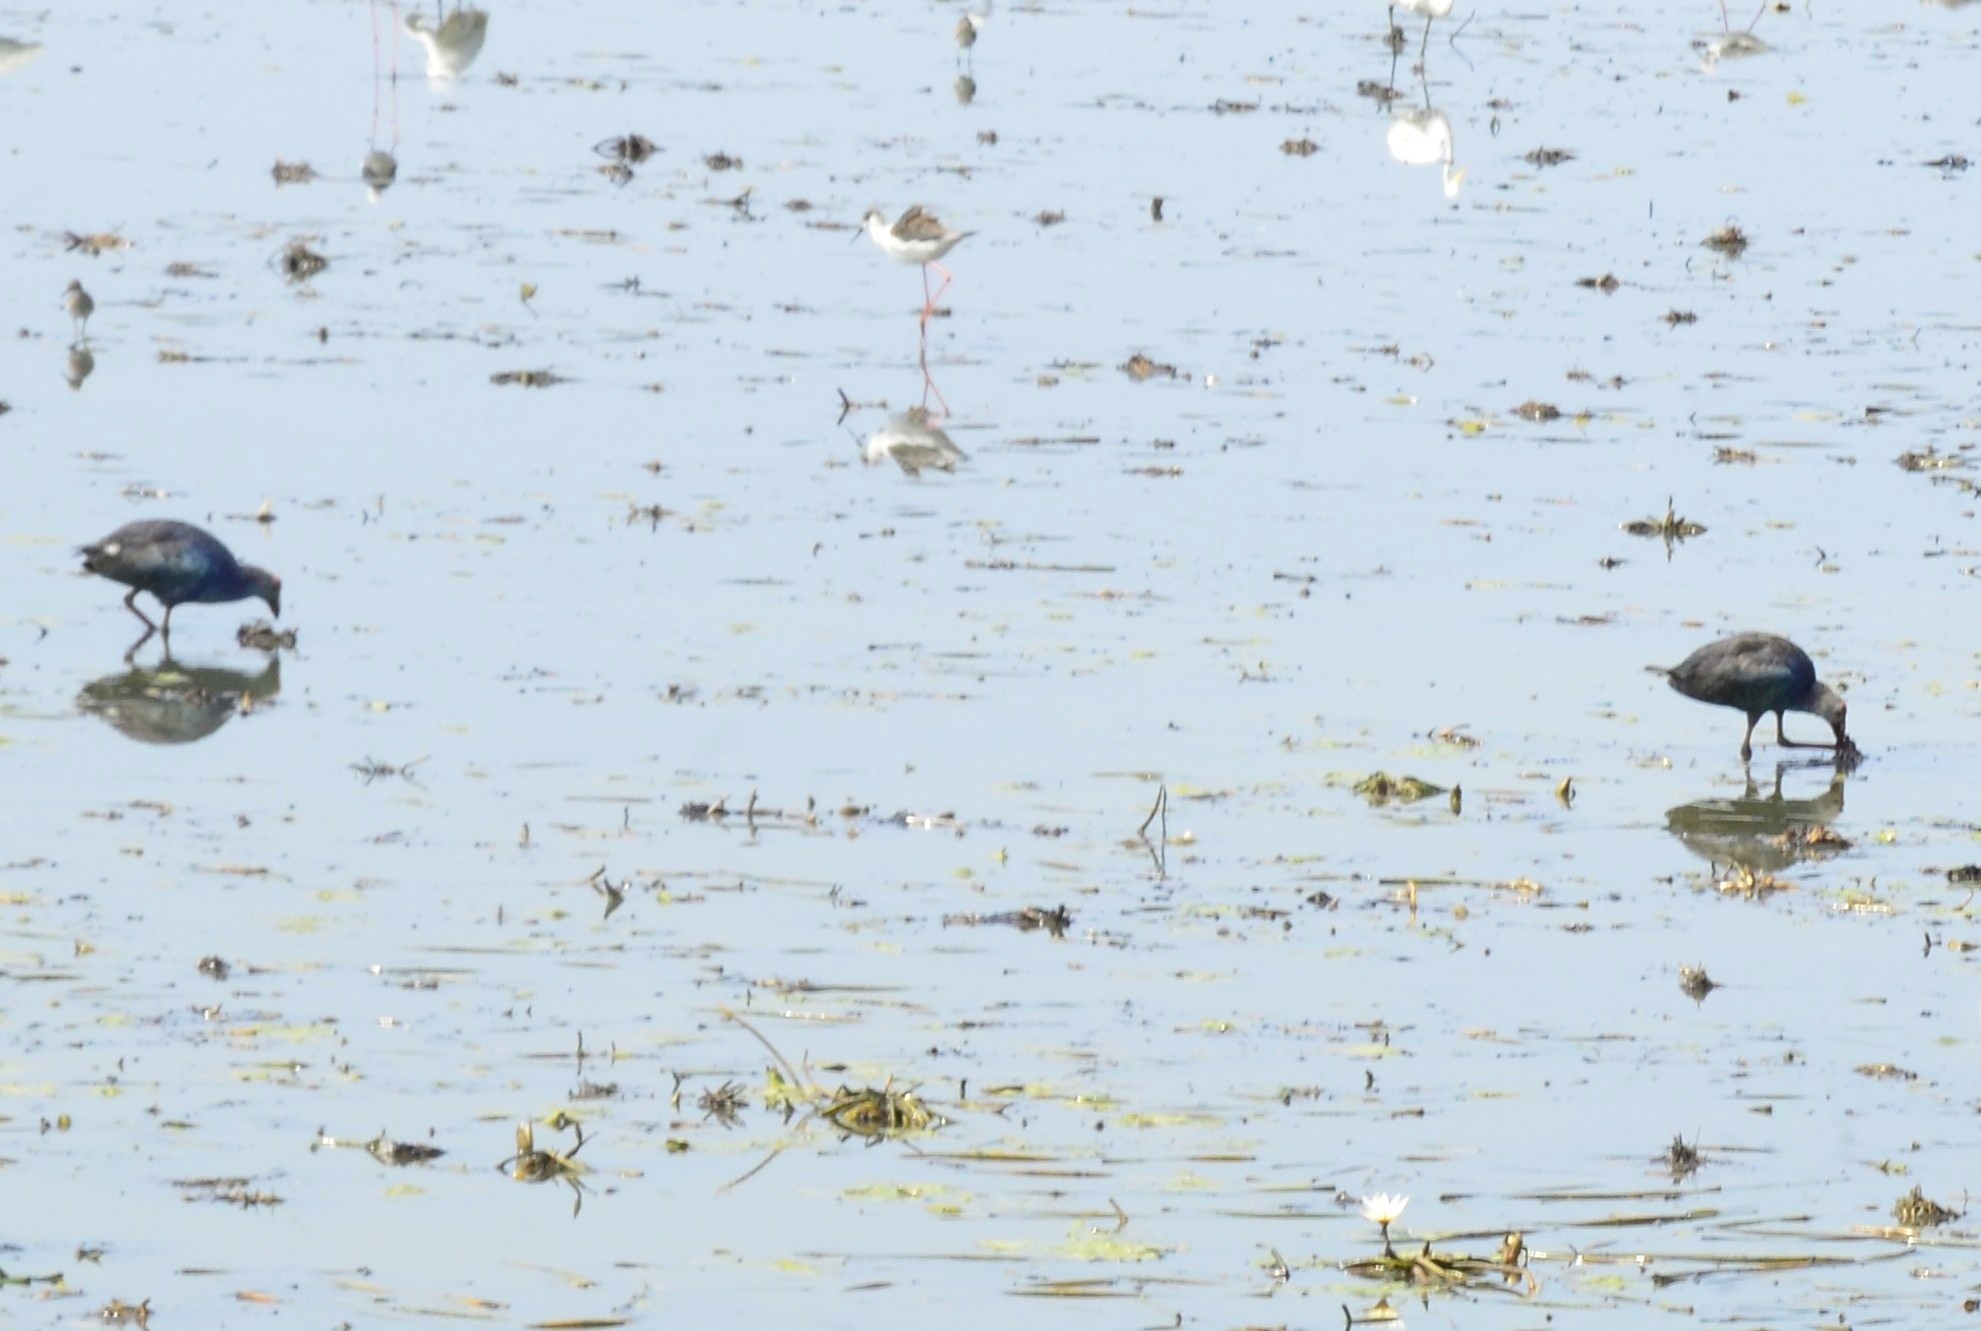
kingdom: Animalia
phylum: Chordata
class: Aves
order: Gruiformes
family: Rallidae
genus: Porphyrio
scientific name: Porphyrio porphyrio
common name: Purple swamphen
